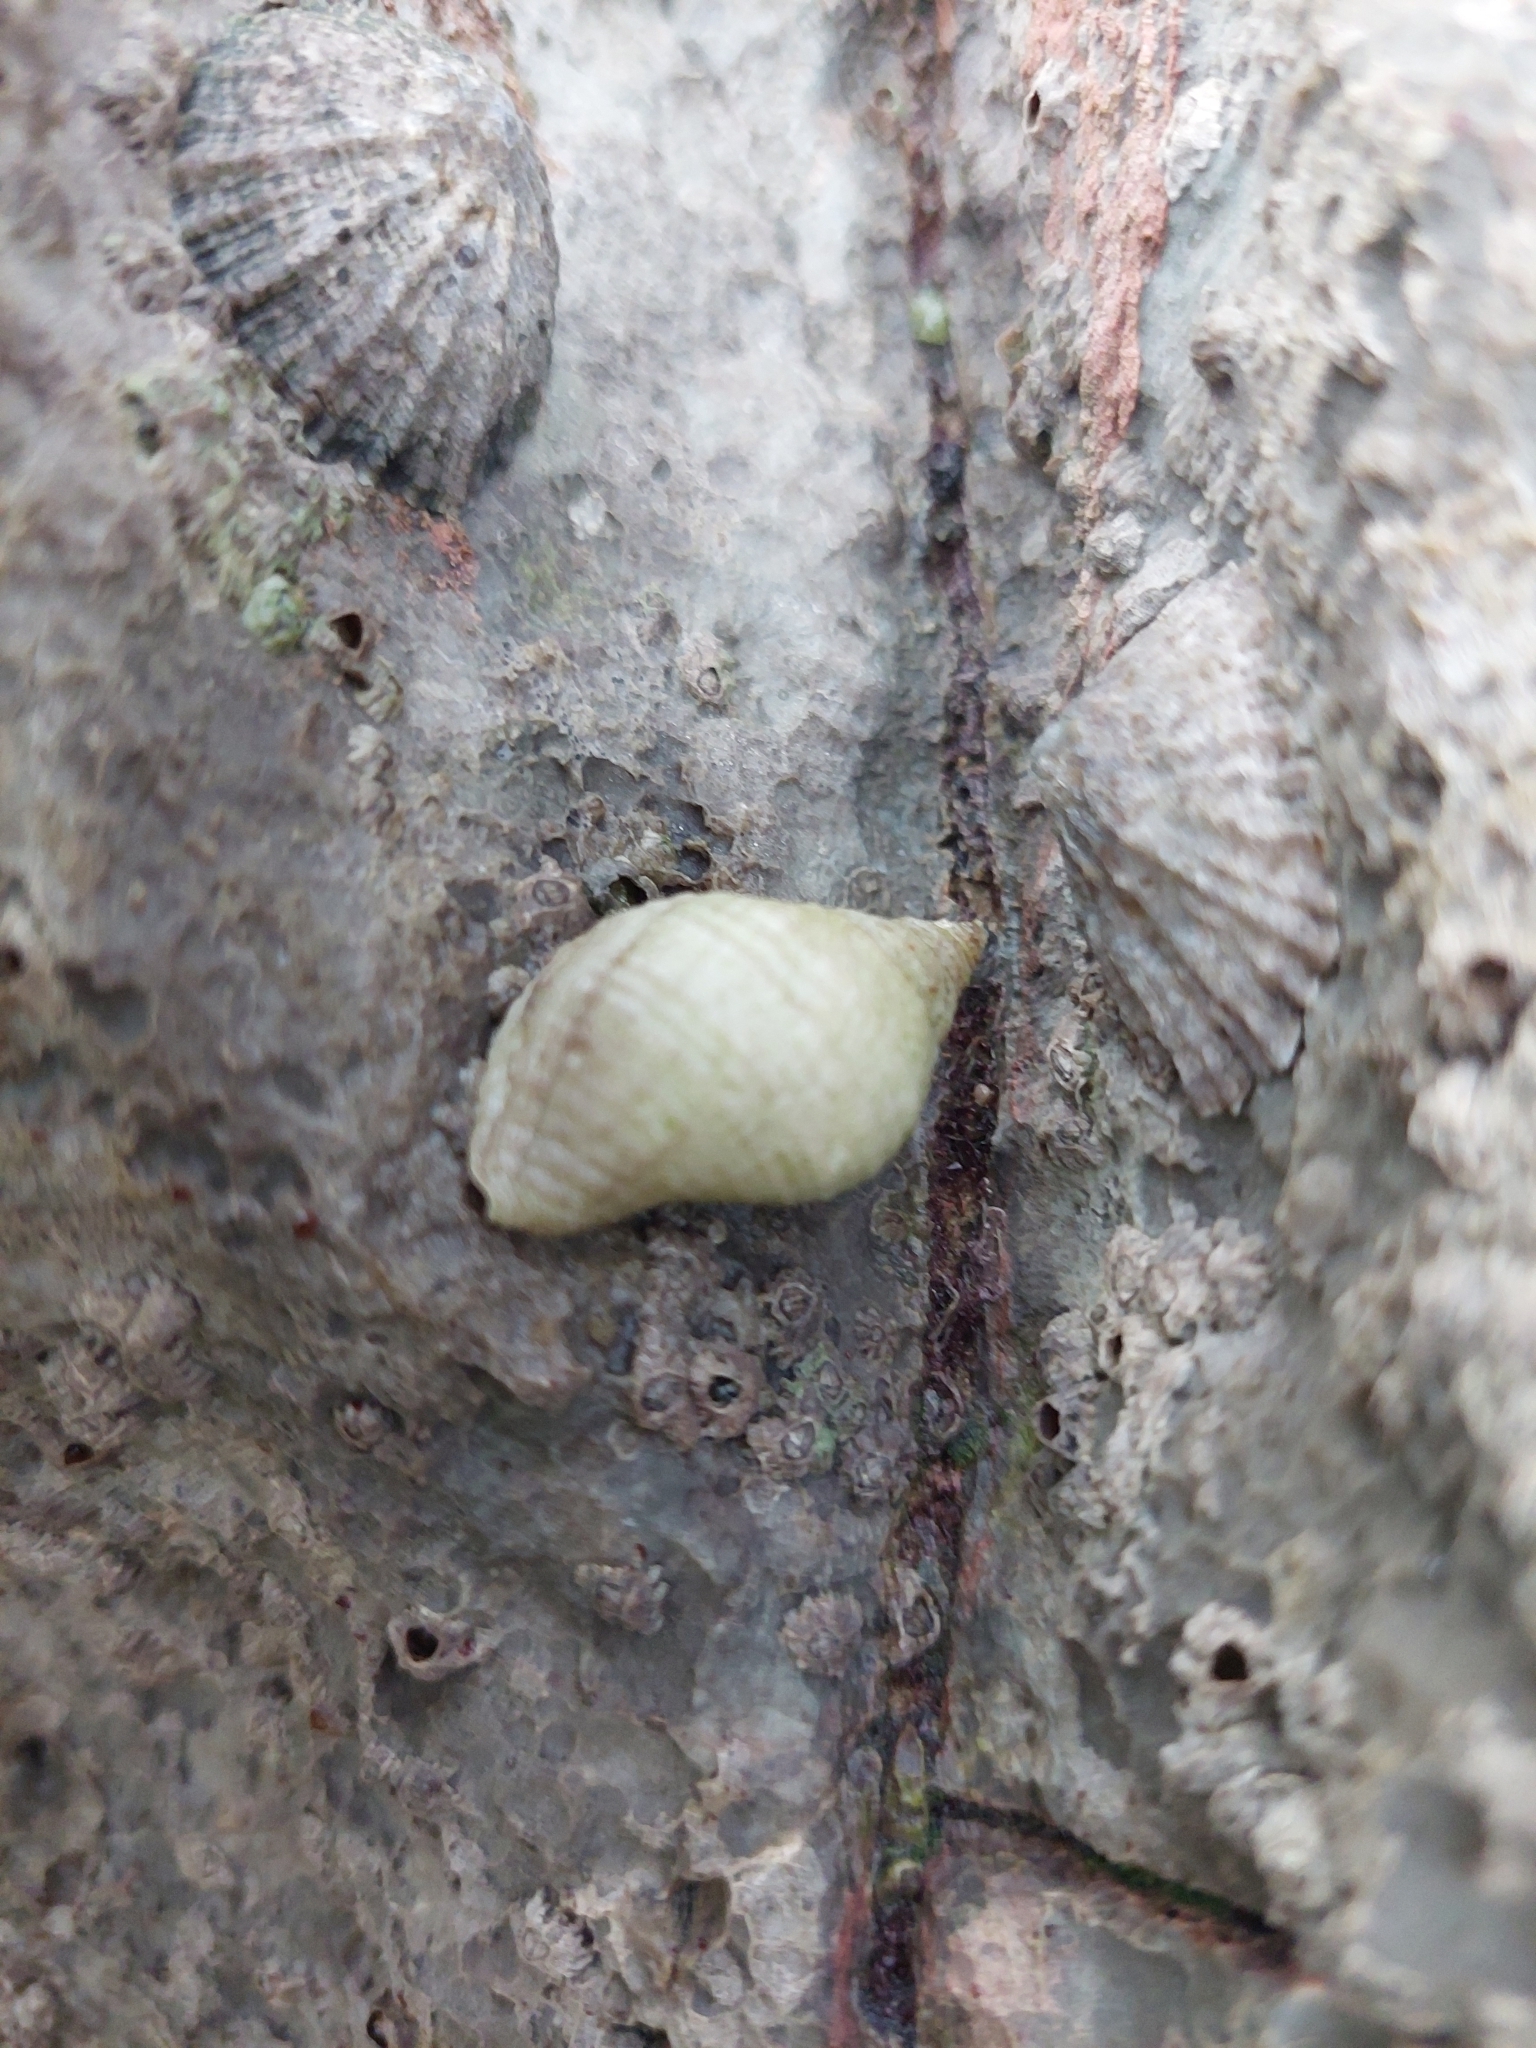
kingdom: Animalia
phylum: Mollusca
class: Gastropoda
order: Neogastropoda
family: Muricidae
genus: Nucella
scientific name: Nucella lapillus
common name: Dog whelk
